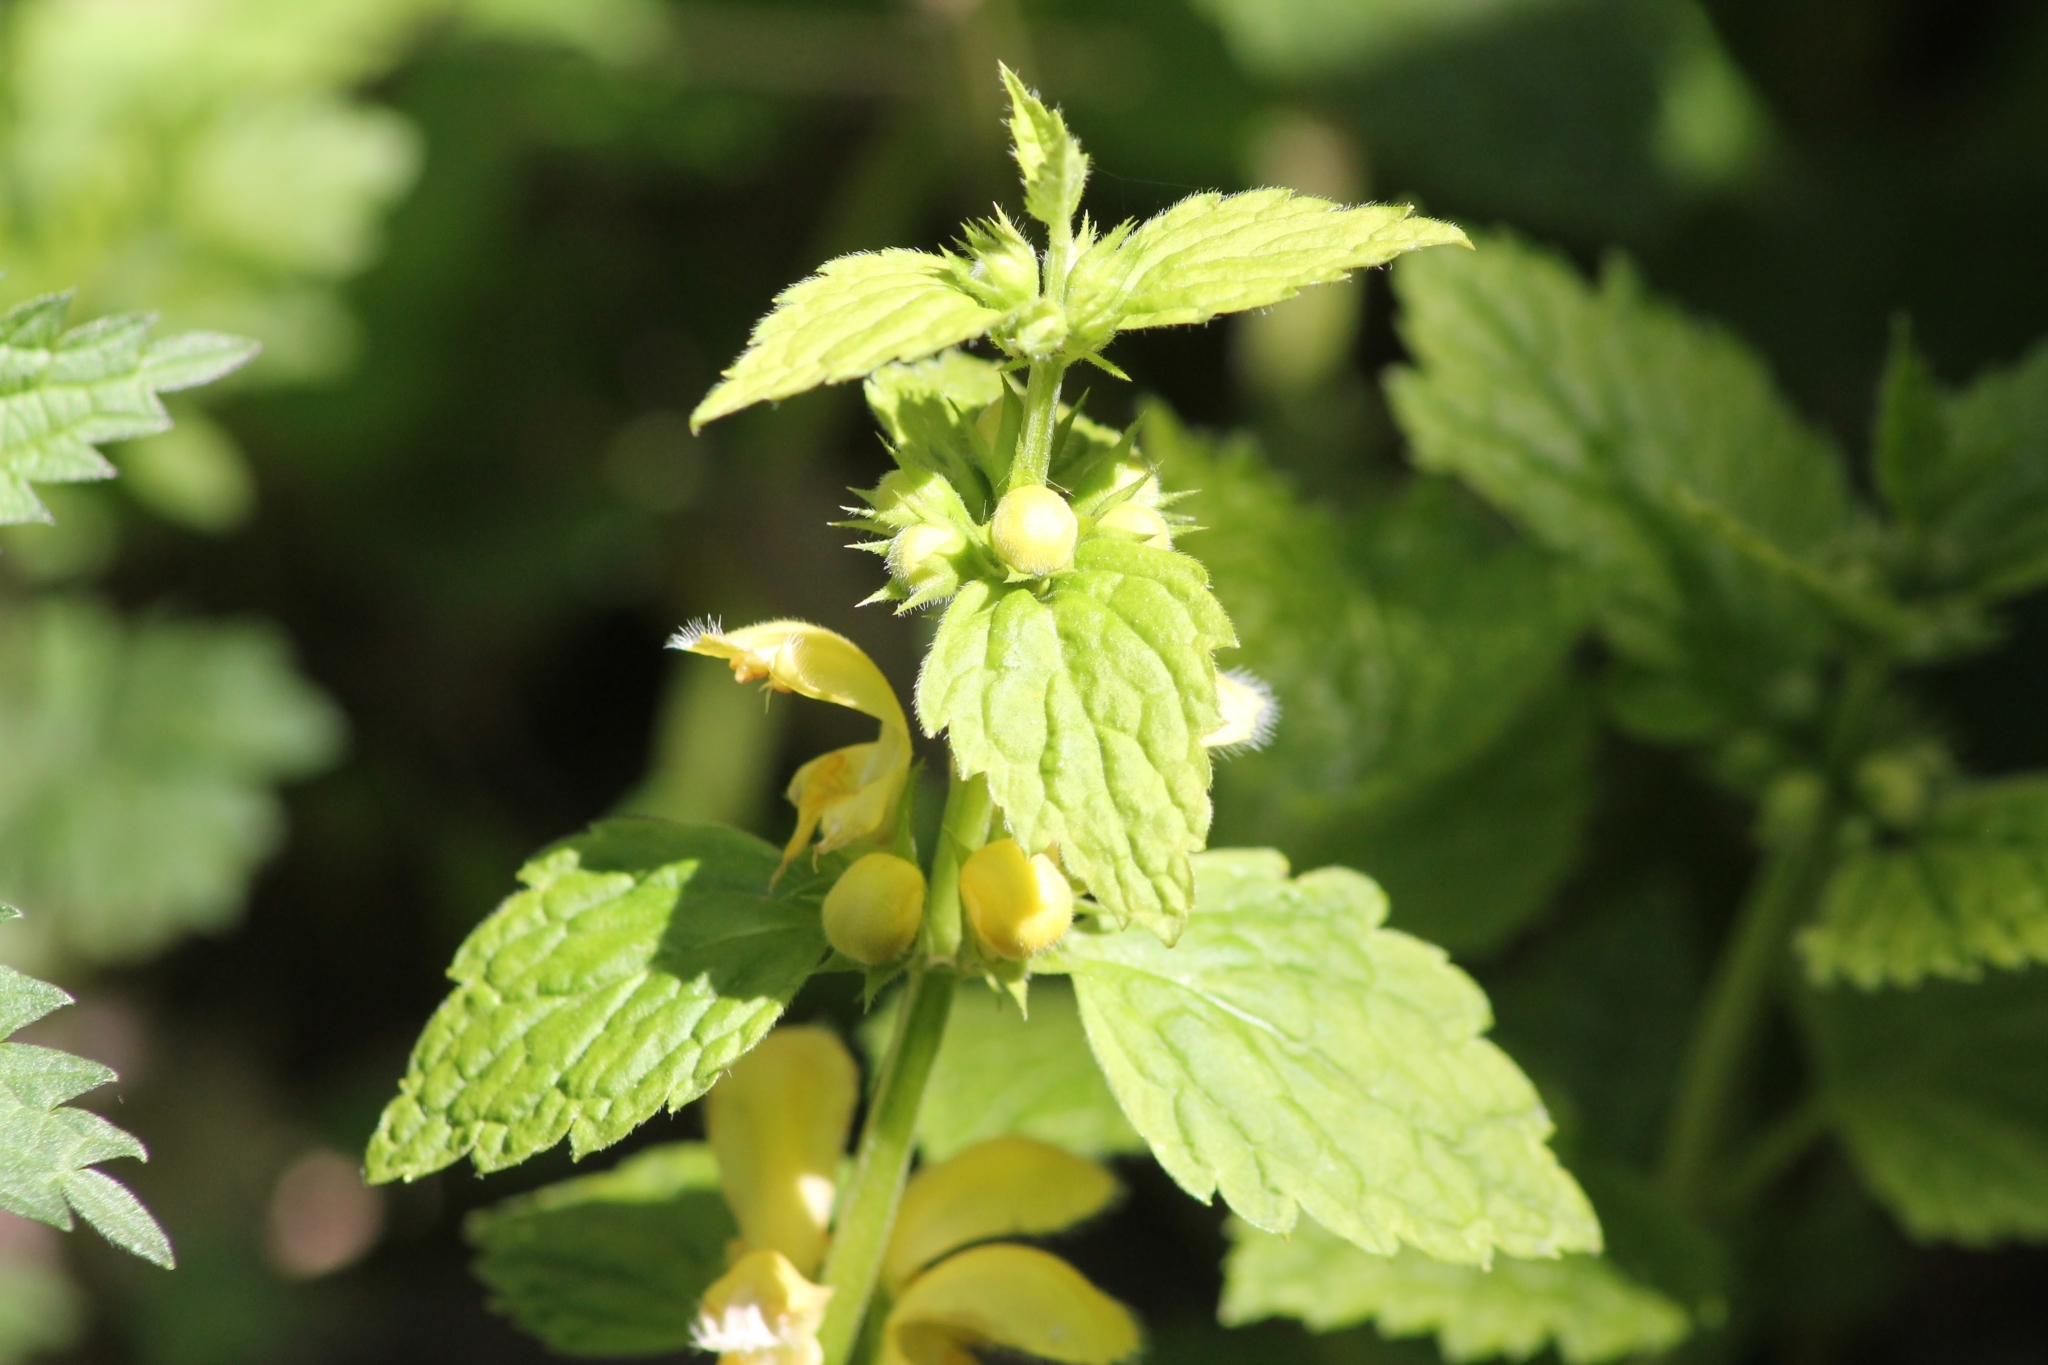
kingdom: Plantae
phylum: Tracheophyta
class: Magnoliopsida
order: Lamiales
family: Lamiaceae
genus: Lamium
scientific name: Lamium galeobdolon
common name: Yellow archangel
